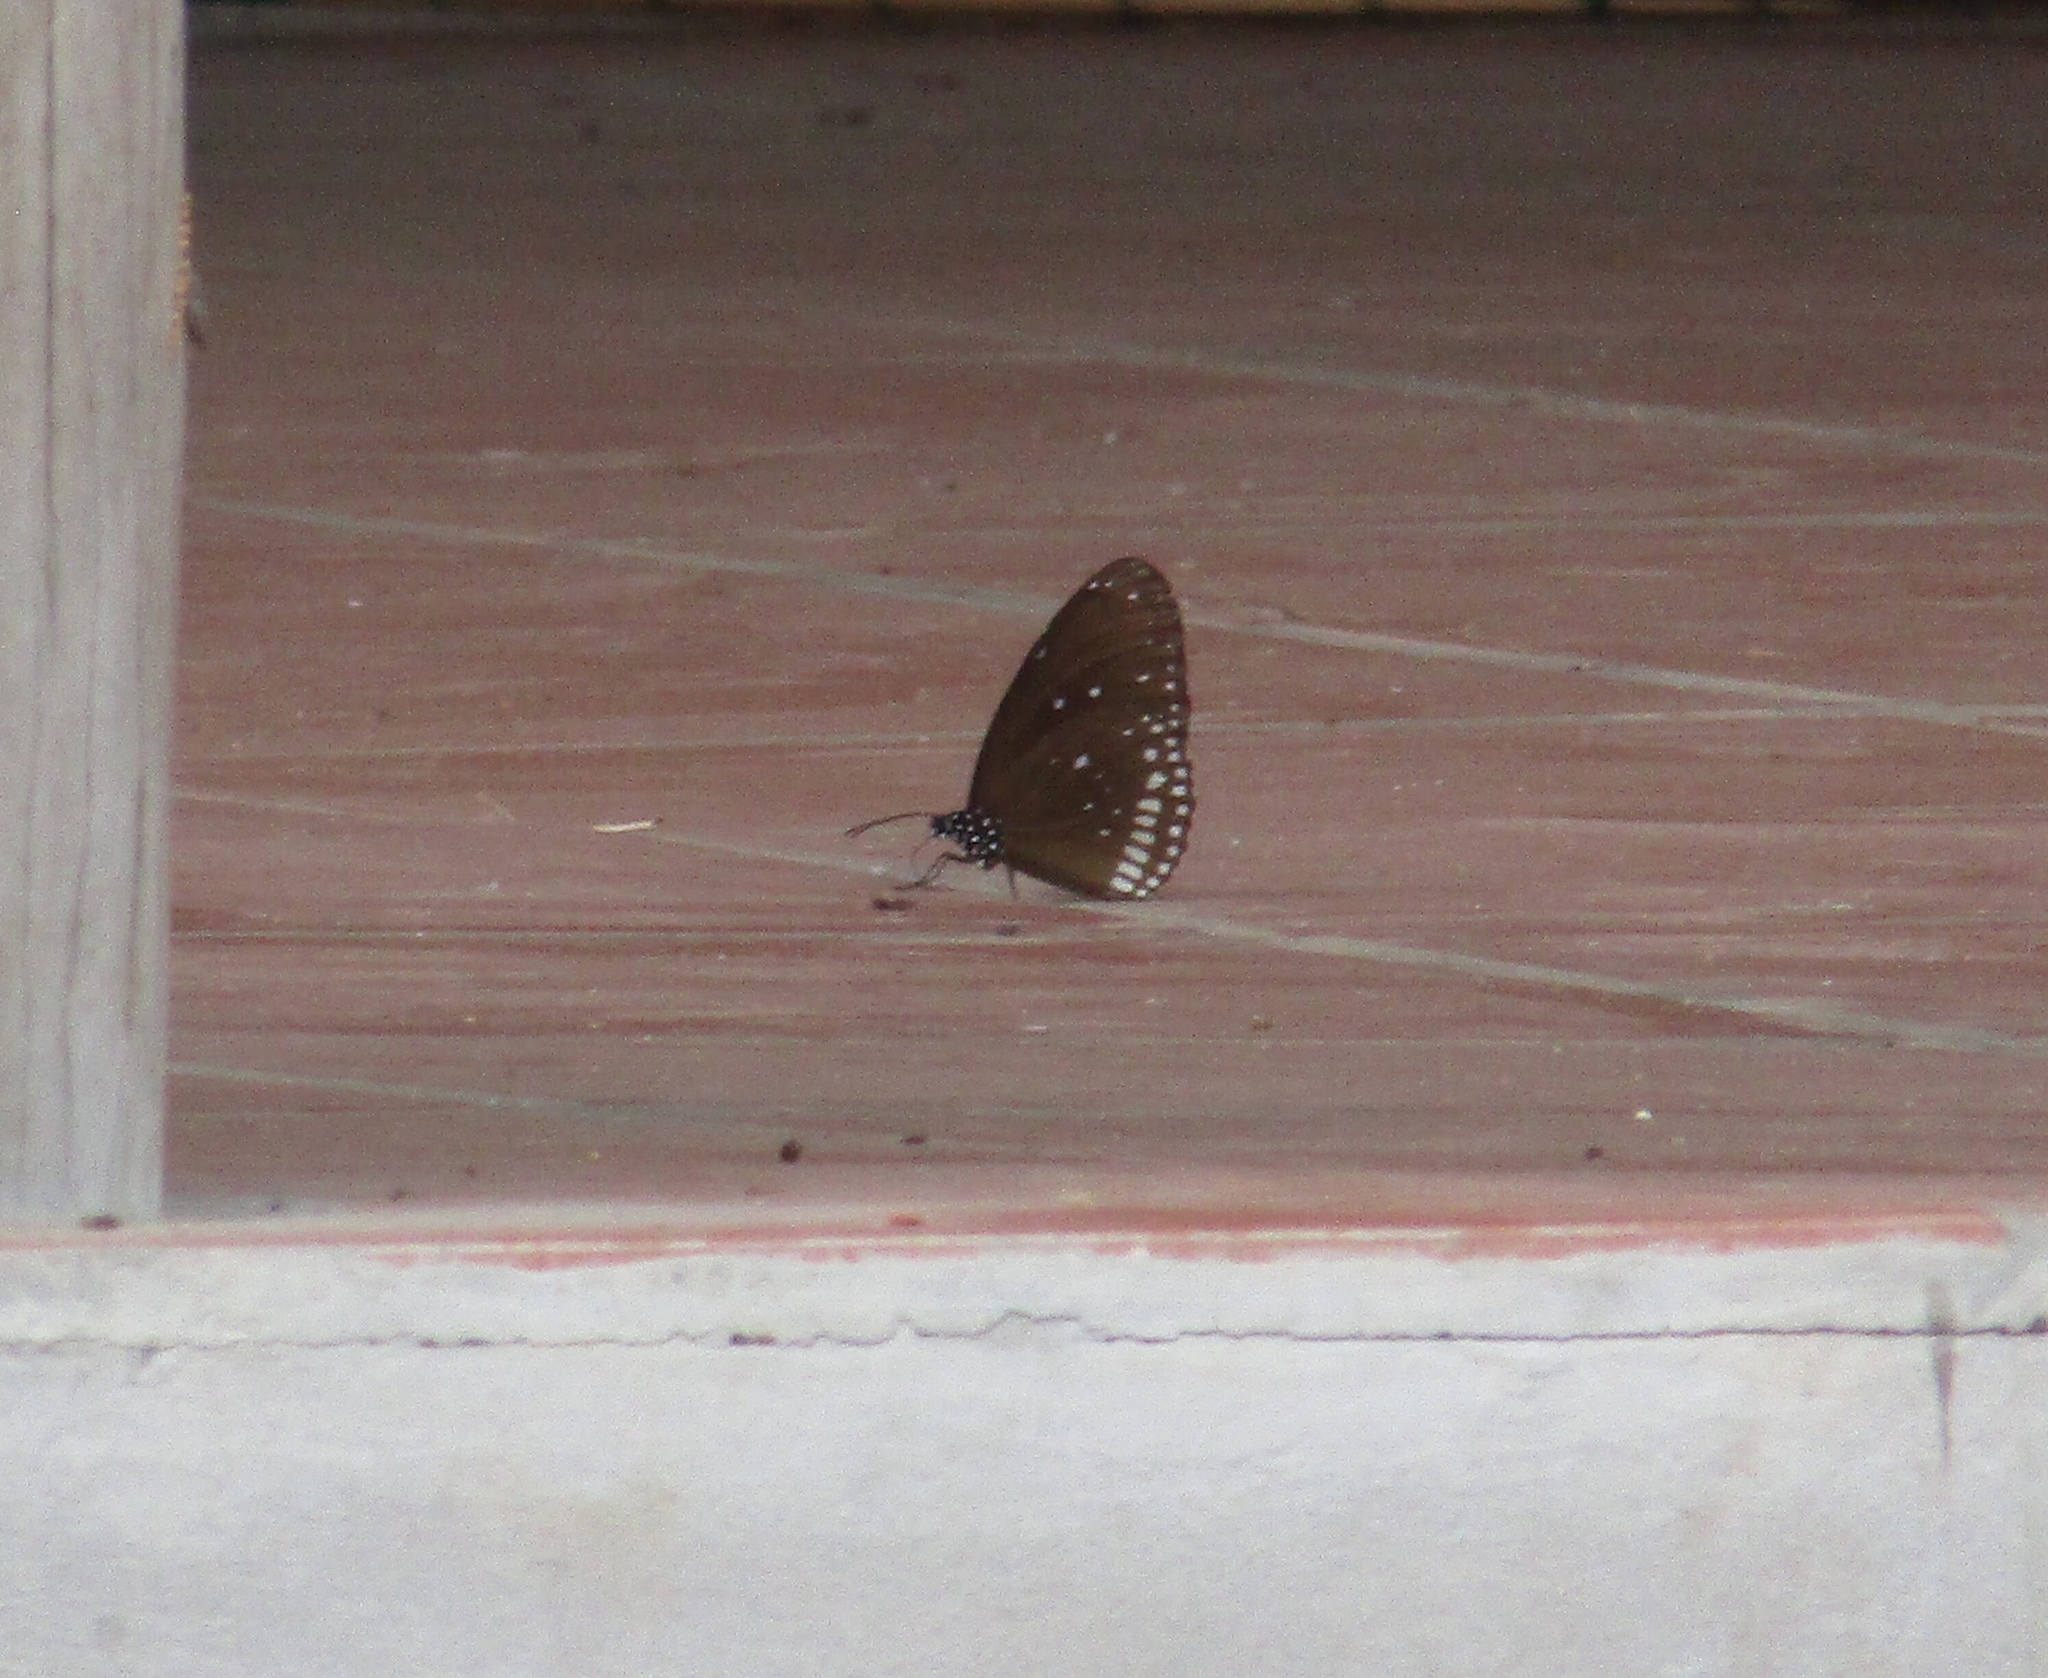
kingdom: Animalia
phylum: Arthropoda
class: Insecta
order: Lepidoptera
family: Nymphalidae
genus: Euploea
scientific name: Euploea core
